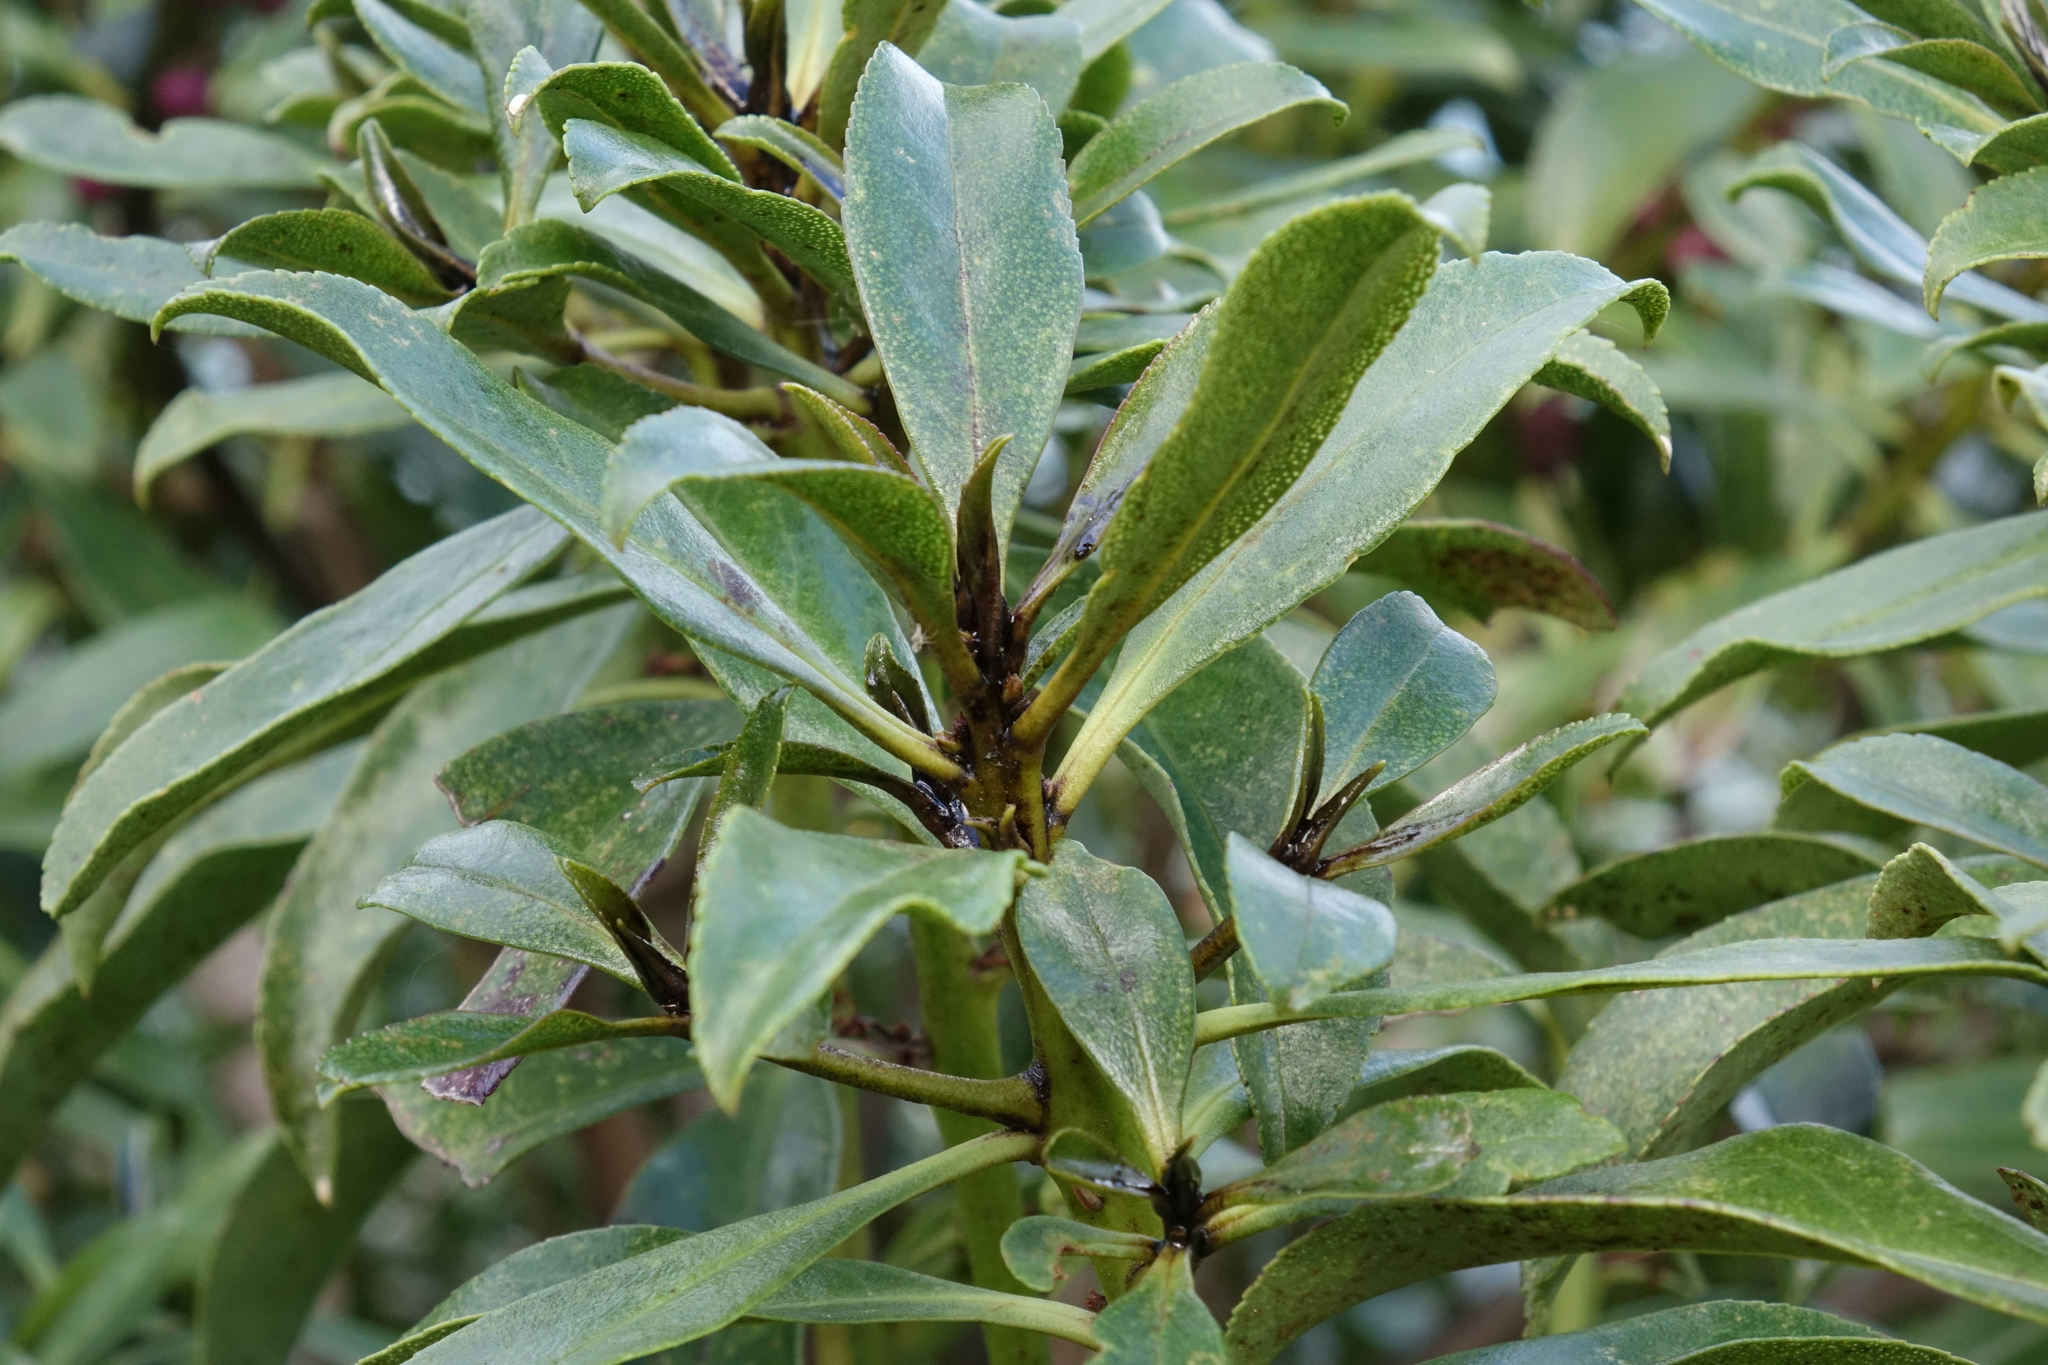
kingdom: Plantae
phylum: Tracheophyta
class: Magnoliopsida
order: Lamiales
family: Scrophulariaceae
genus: Myoporum
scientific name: Myoporum laetum
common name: Ngaio tree
